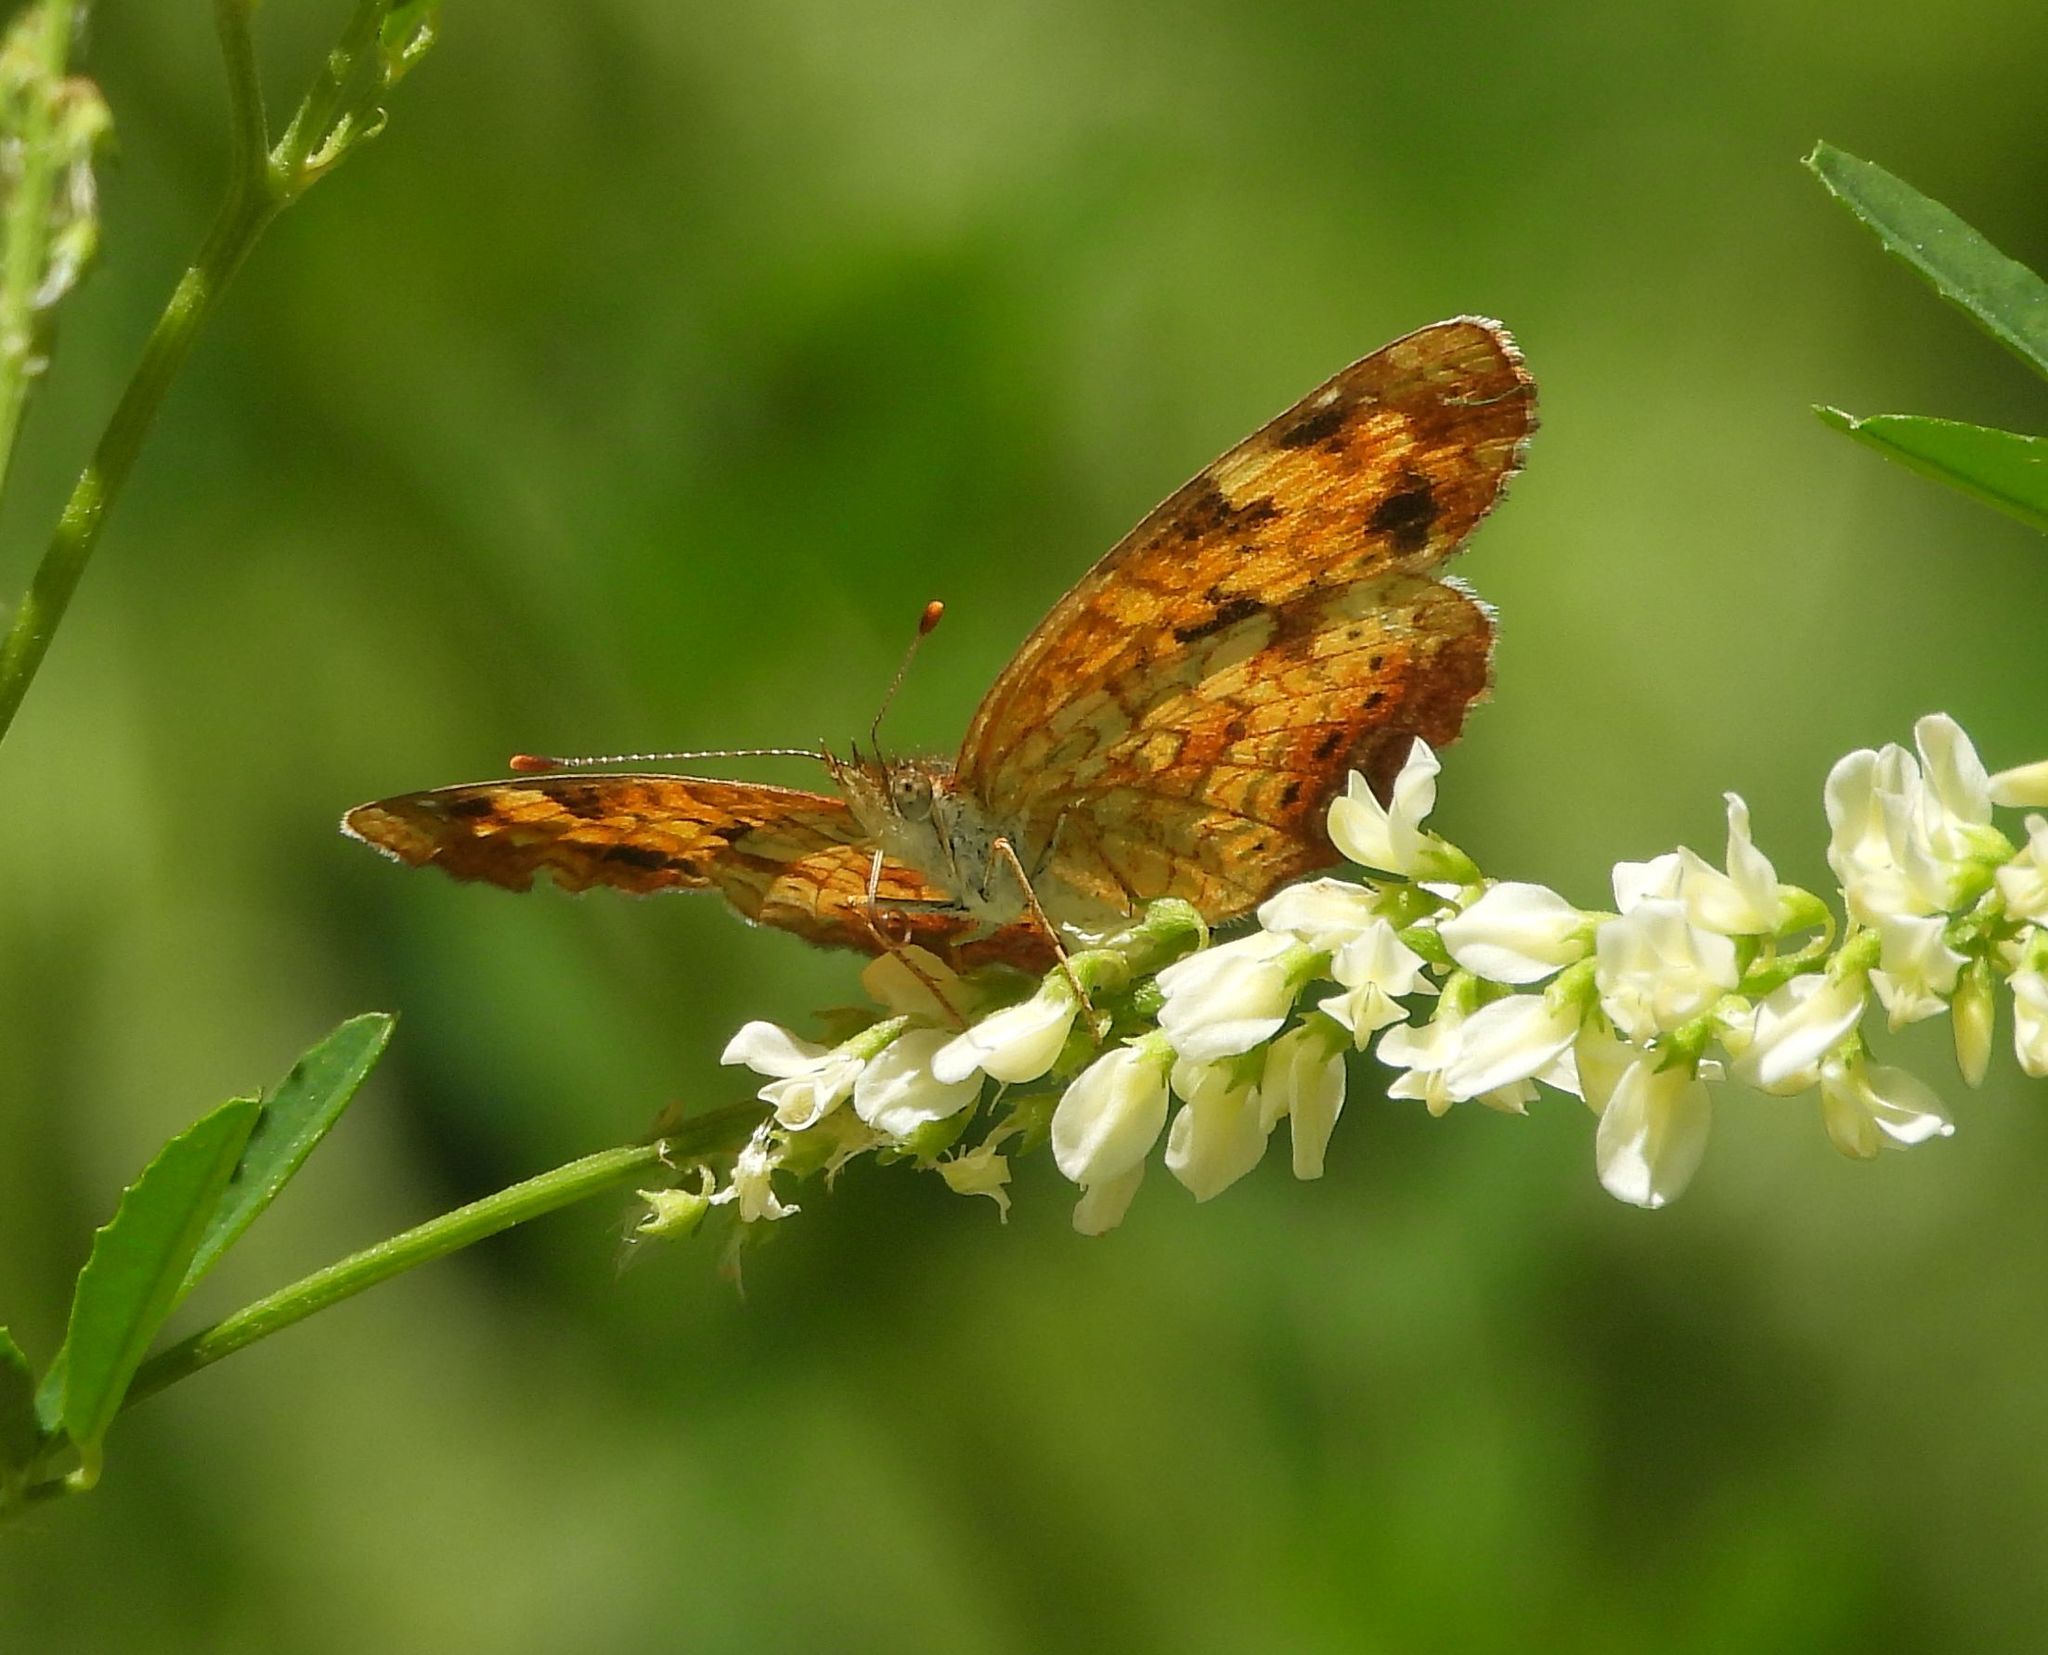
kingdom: Animalia
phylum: Arthropoda
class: Insecta
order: Lepidoptera
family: Nymphalidae
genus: Phyciodes
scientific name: Phyciodes tharos
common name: Pearl crescent
